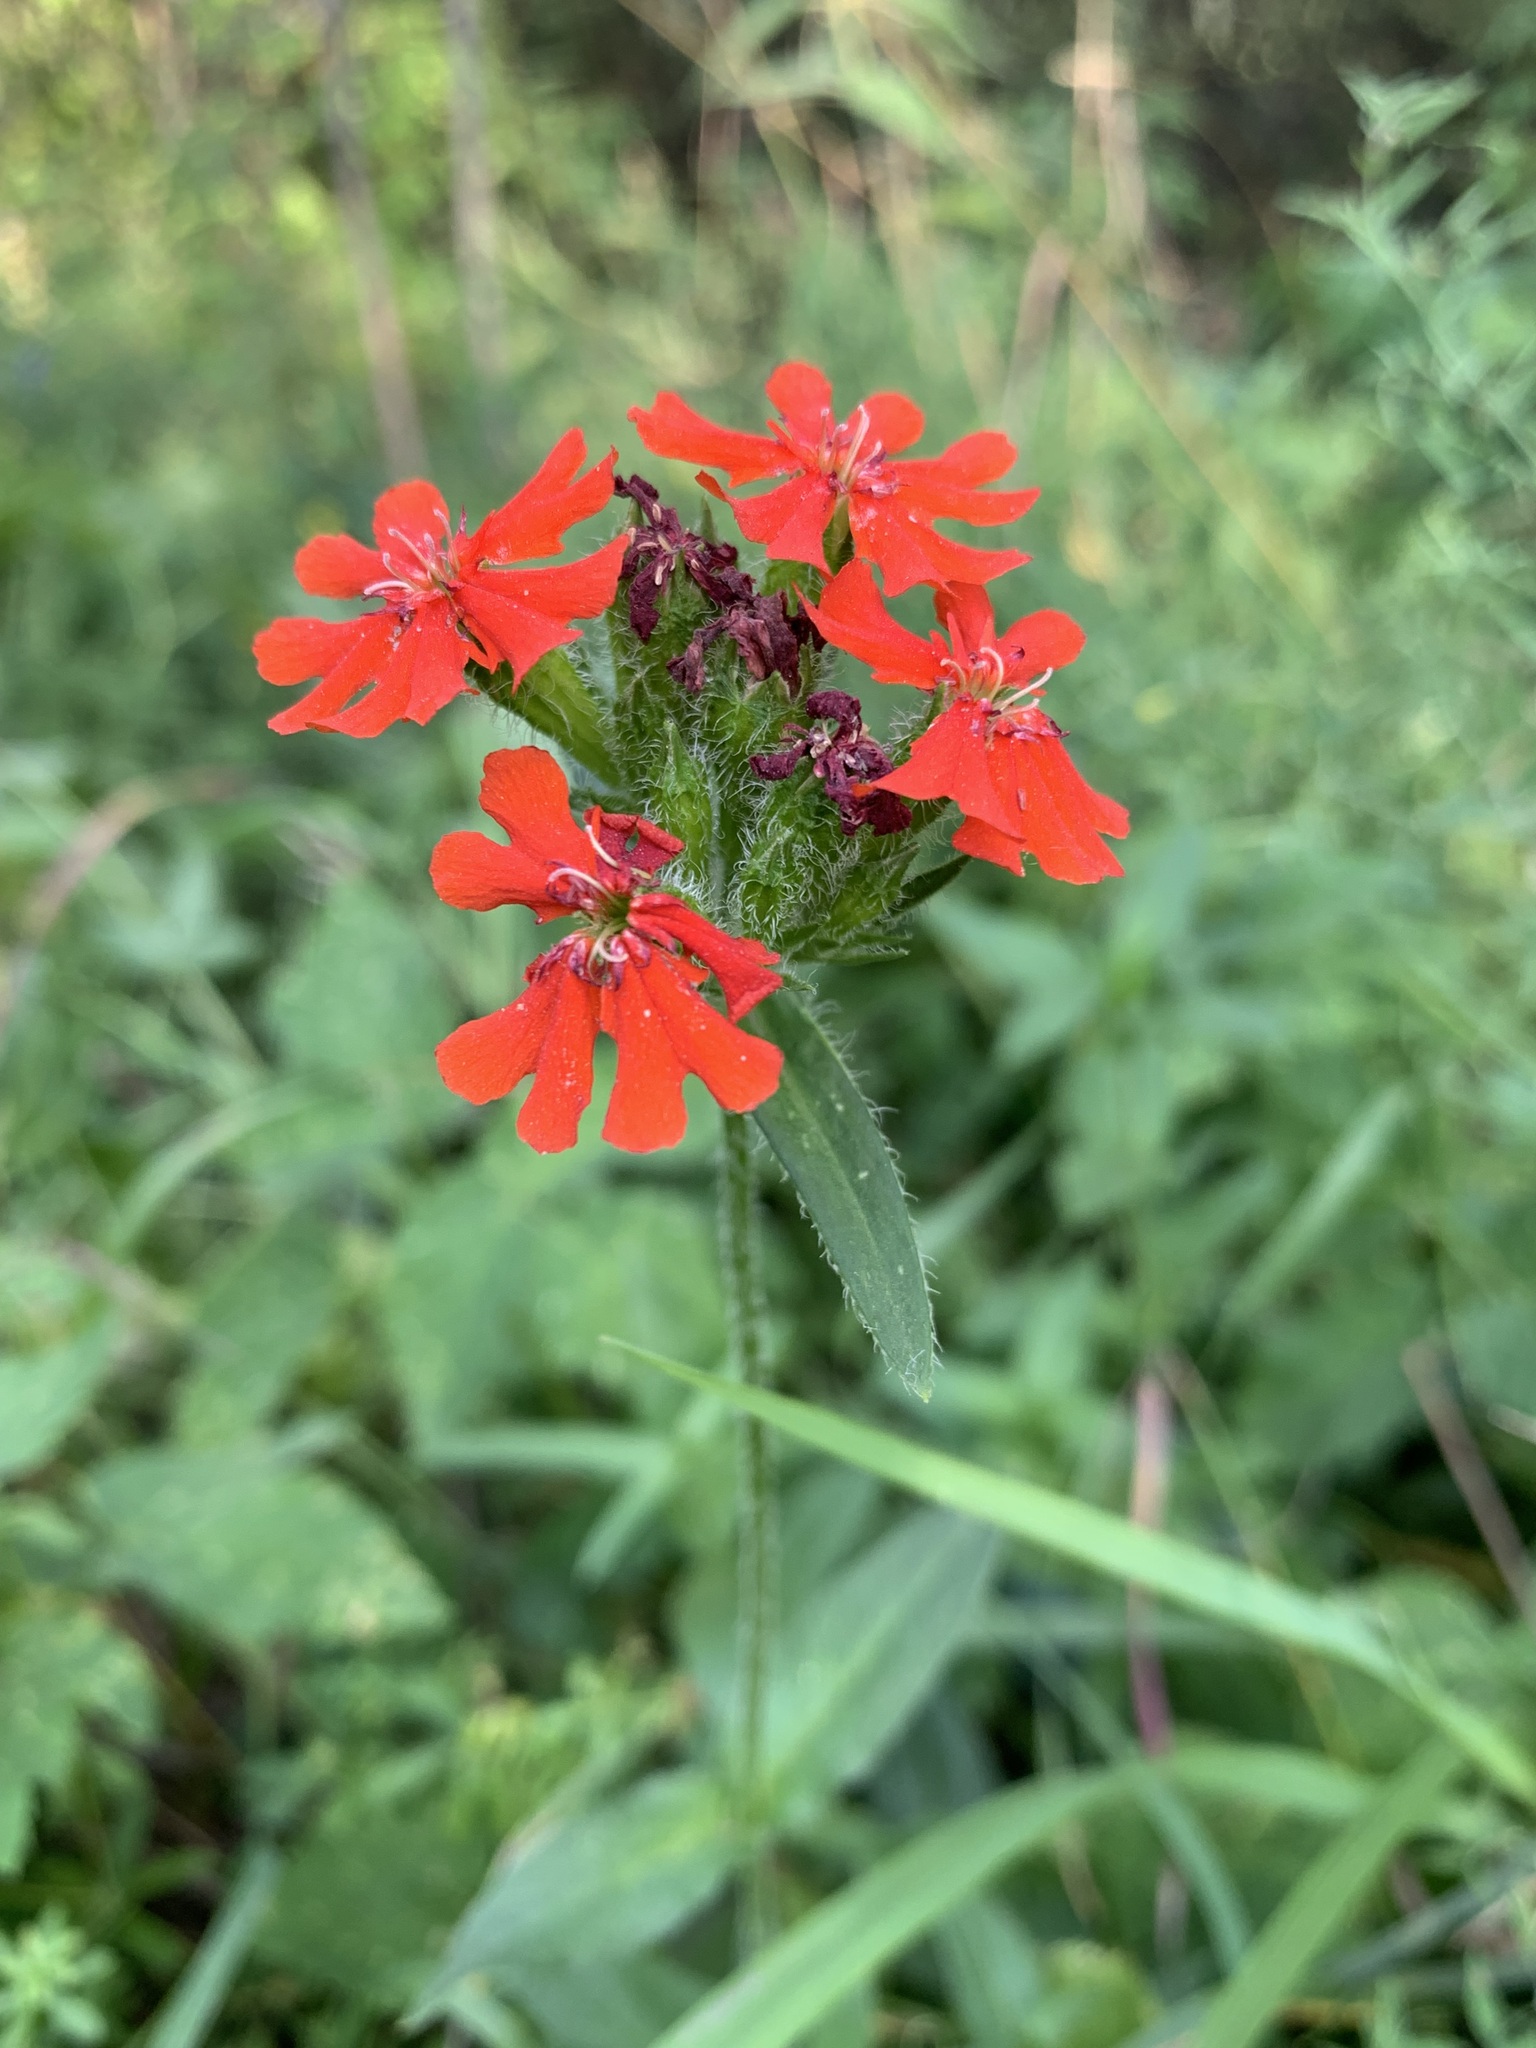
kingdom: Plantae
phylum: Tracheophyta
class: Magnoliopsida
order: Caryophyllales
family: Caryophyllaceae
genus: Silene
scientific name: Silene chalcedonica
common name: Maltese-cross
